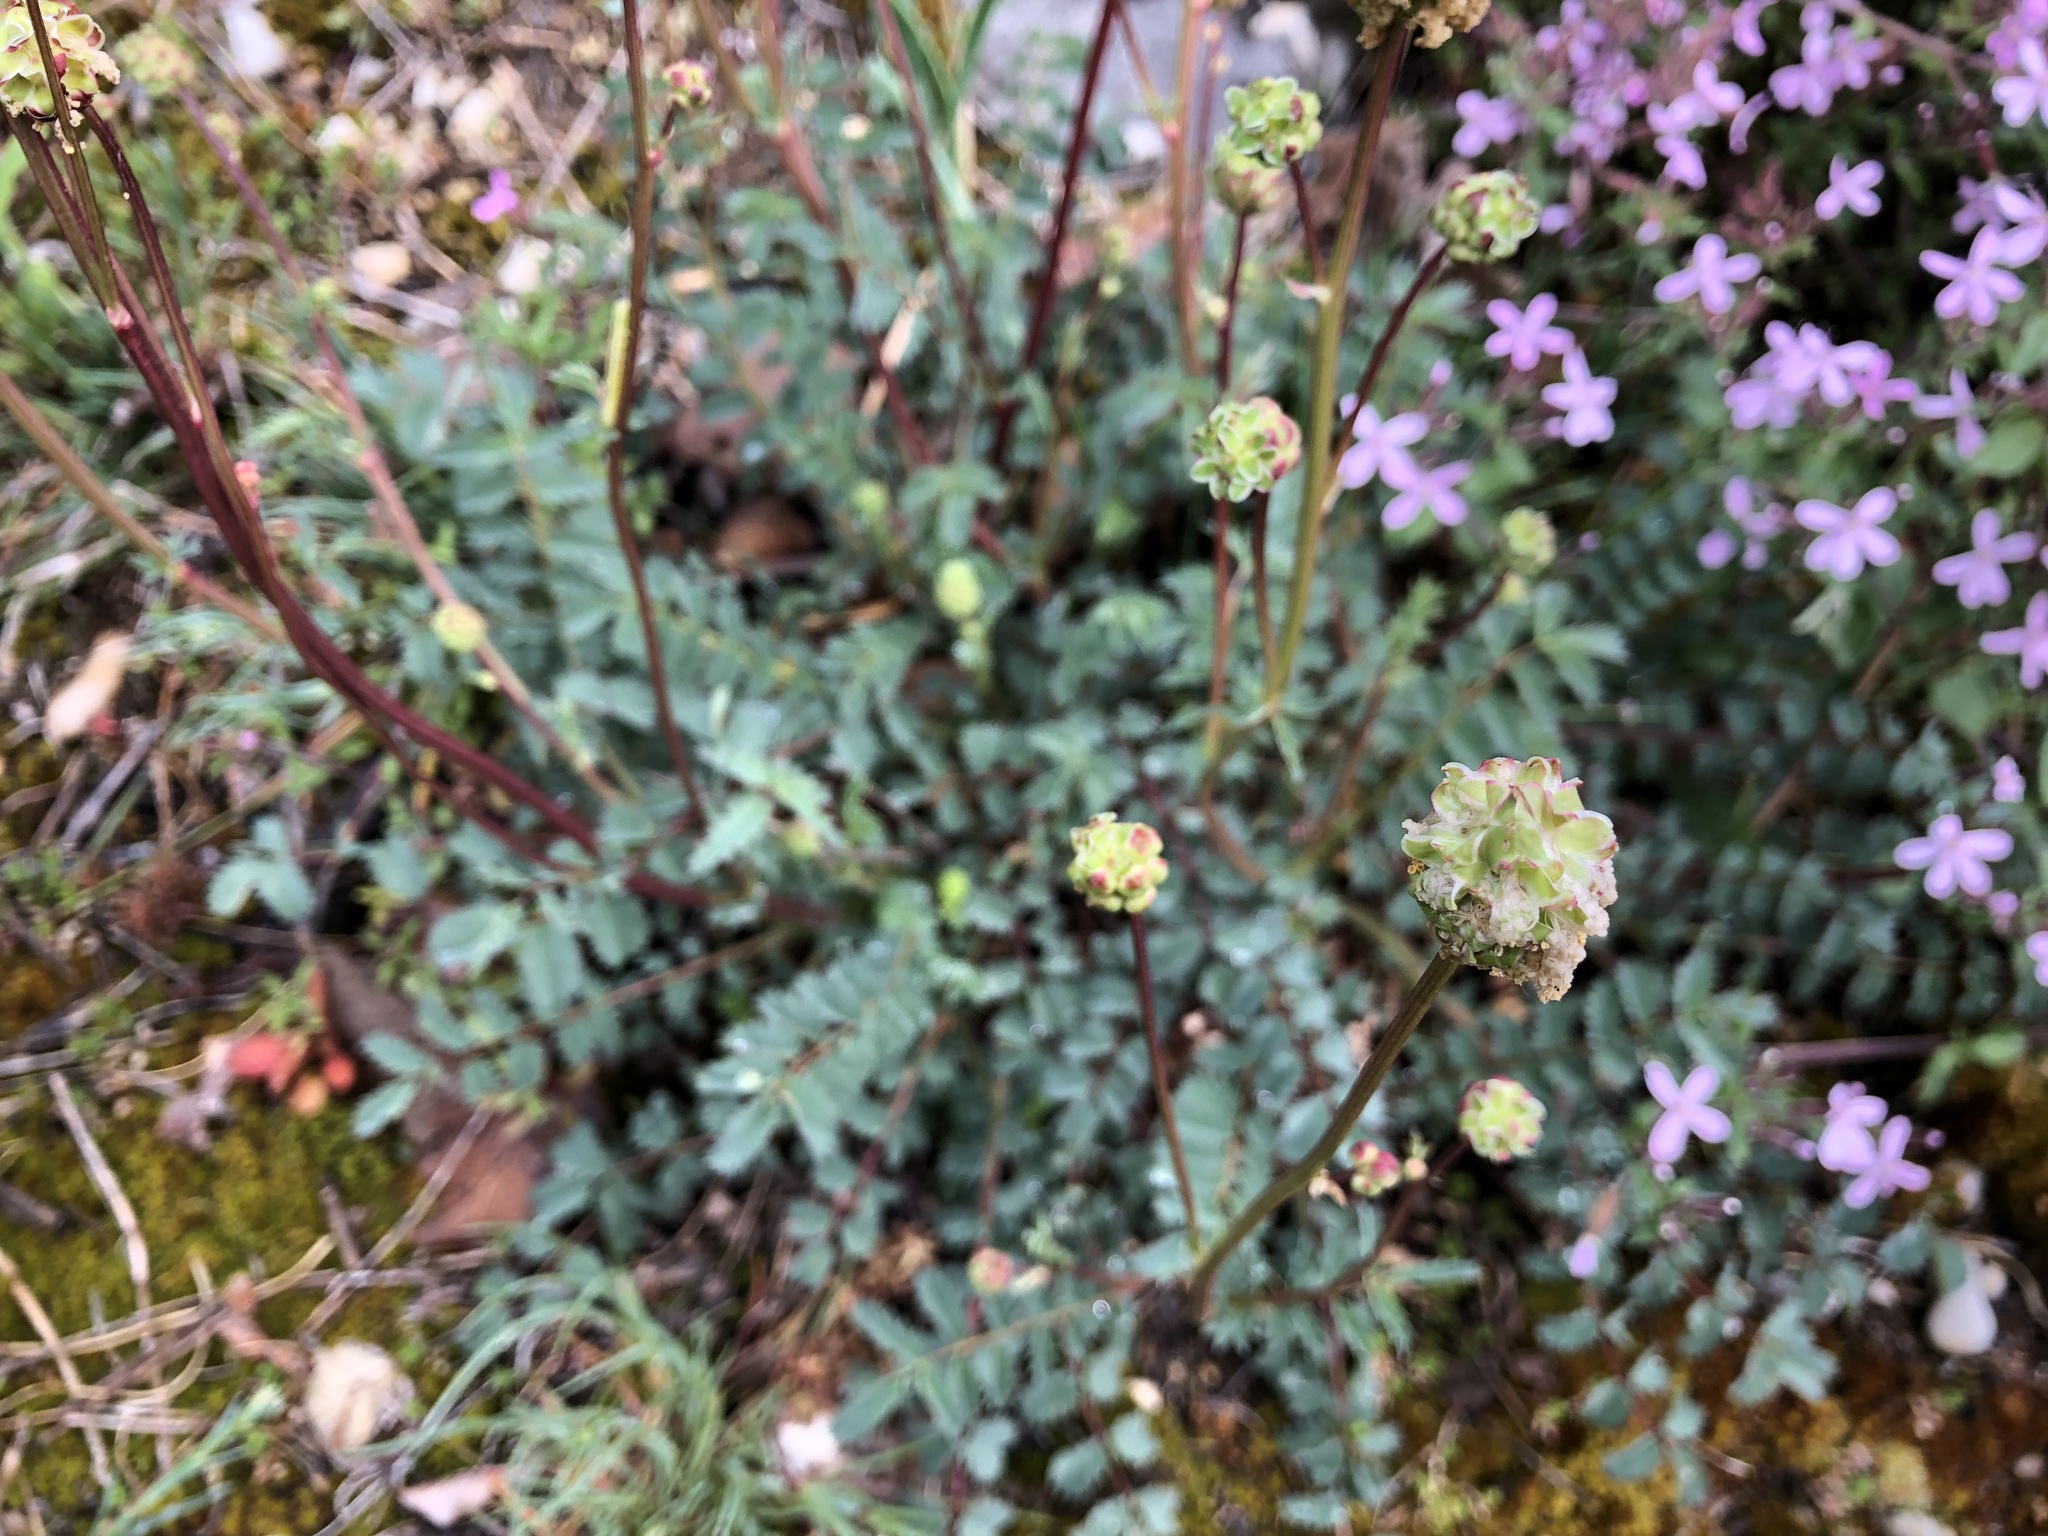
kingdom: Plantae
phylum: Tracheophyta
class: Magnoliopsida
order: Rosales
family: Rosaceae
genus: Poterium
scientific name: Poterium sanguisorba
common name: Salad burnet
